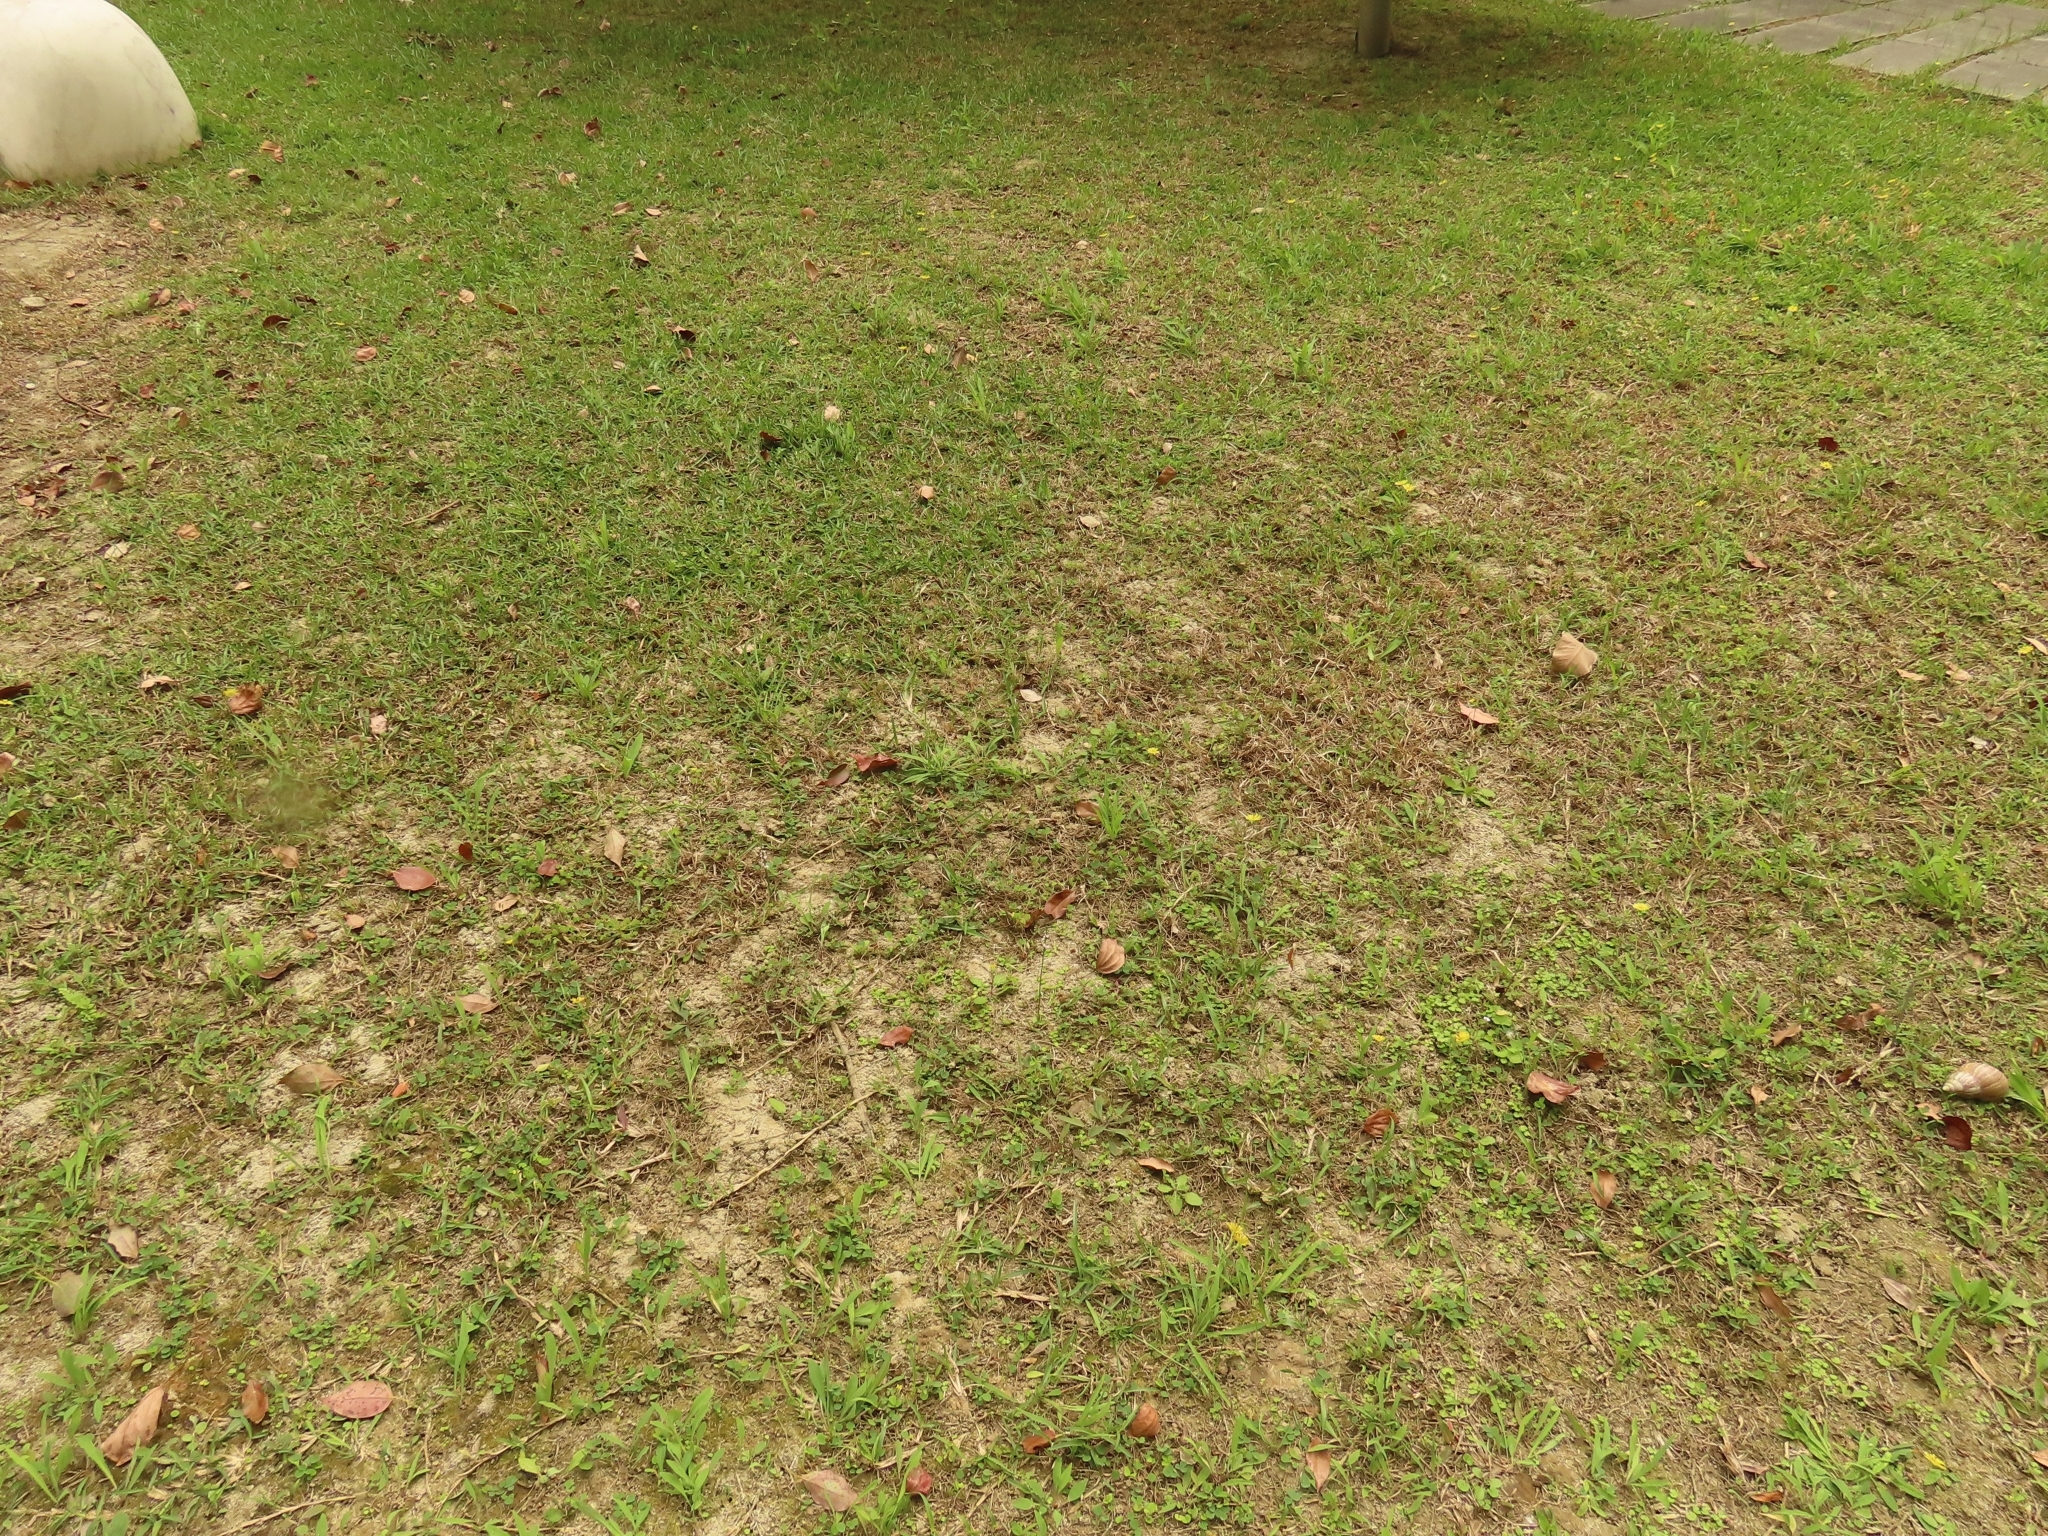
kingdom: Plantae
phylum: Tracheophyta
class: Liliopsida
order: Asparagales
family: Orchidaceae
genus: Spiranthes
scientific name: Spiranthes sinensis
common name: Chinese spiranthes
